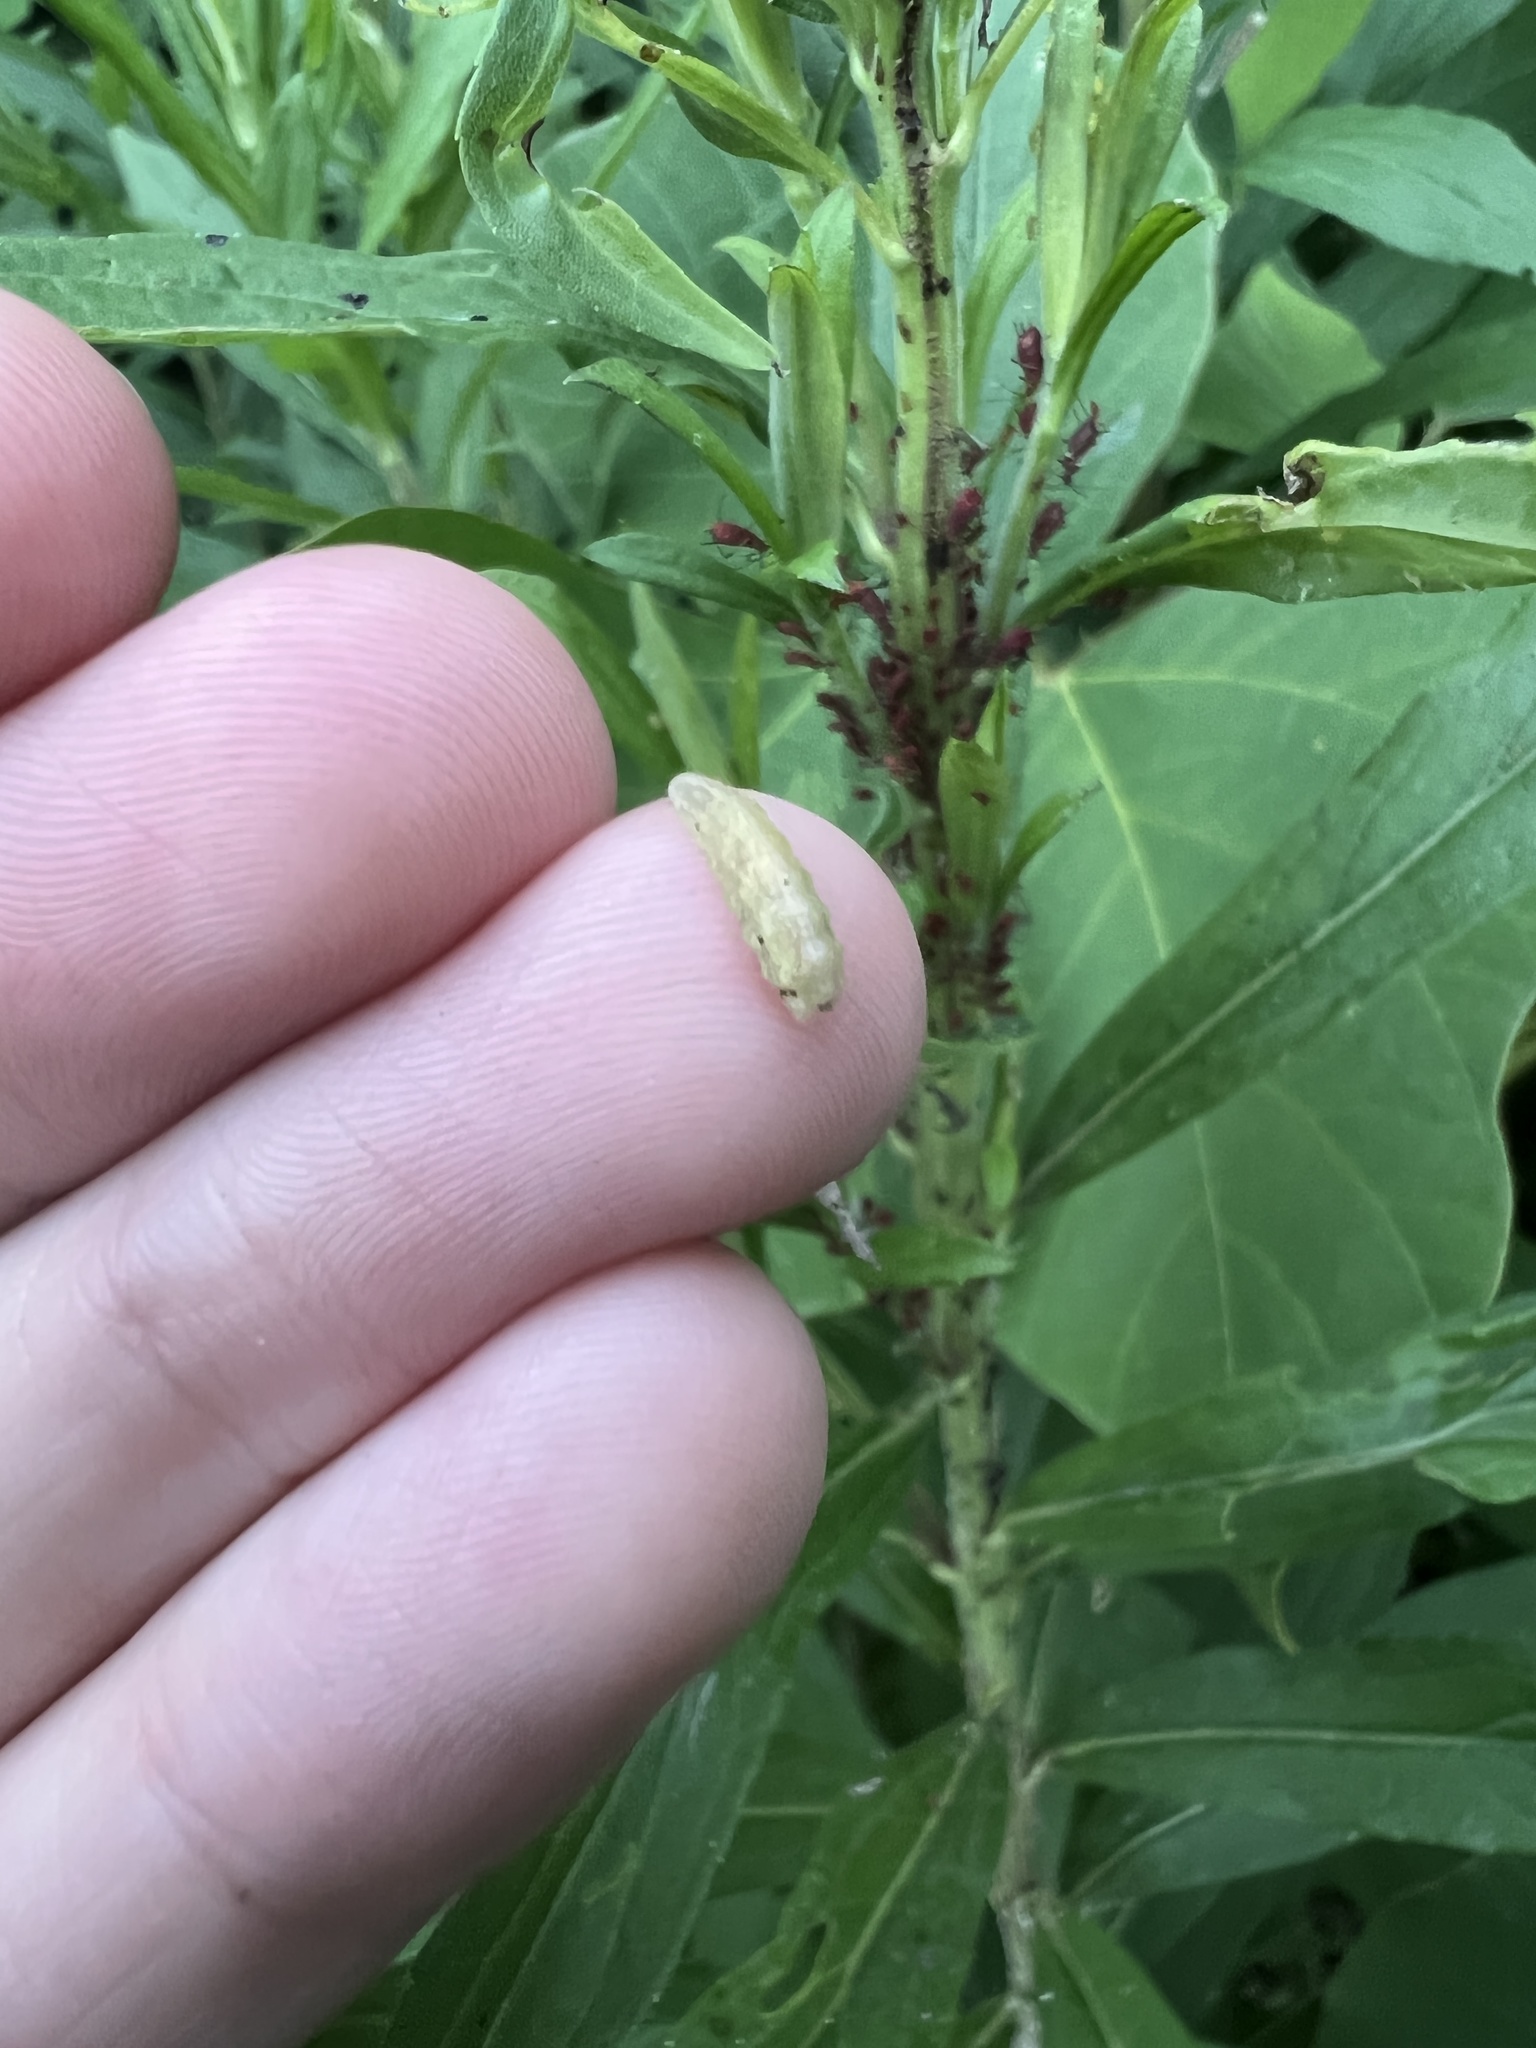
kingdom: Animalia
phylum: Arthropoda
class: Insecta
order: Diptera
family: Syrphidae
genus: Syrphus
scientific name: Syrphus
